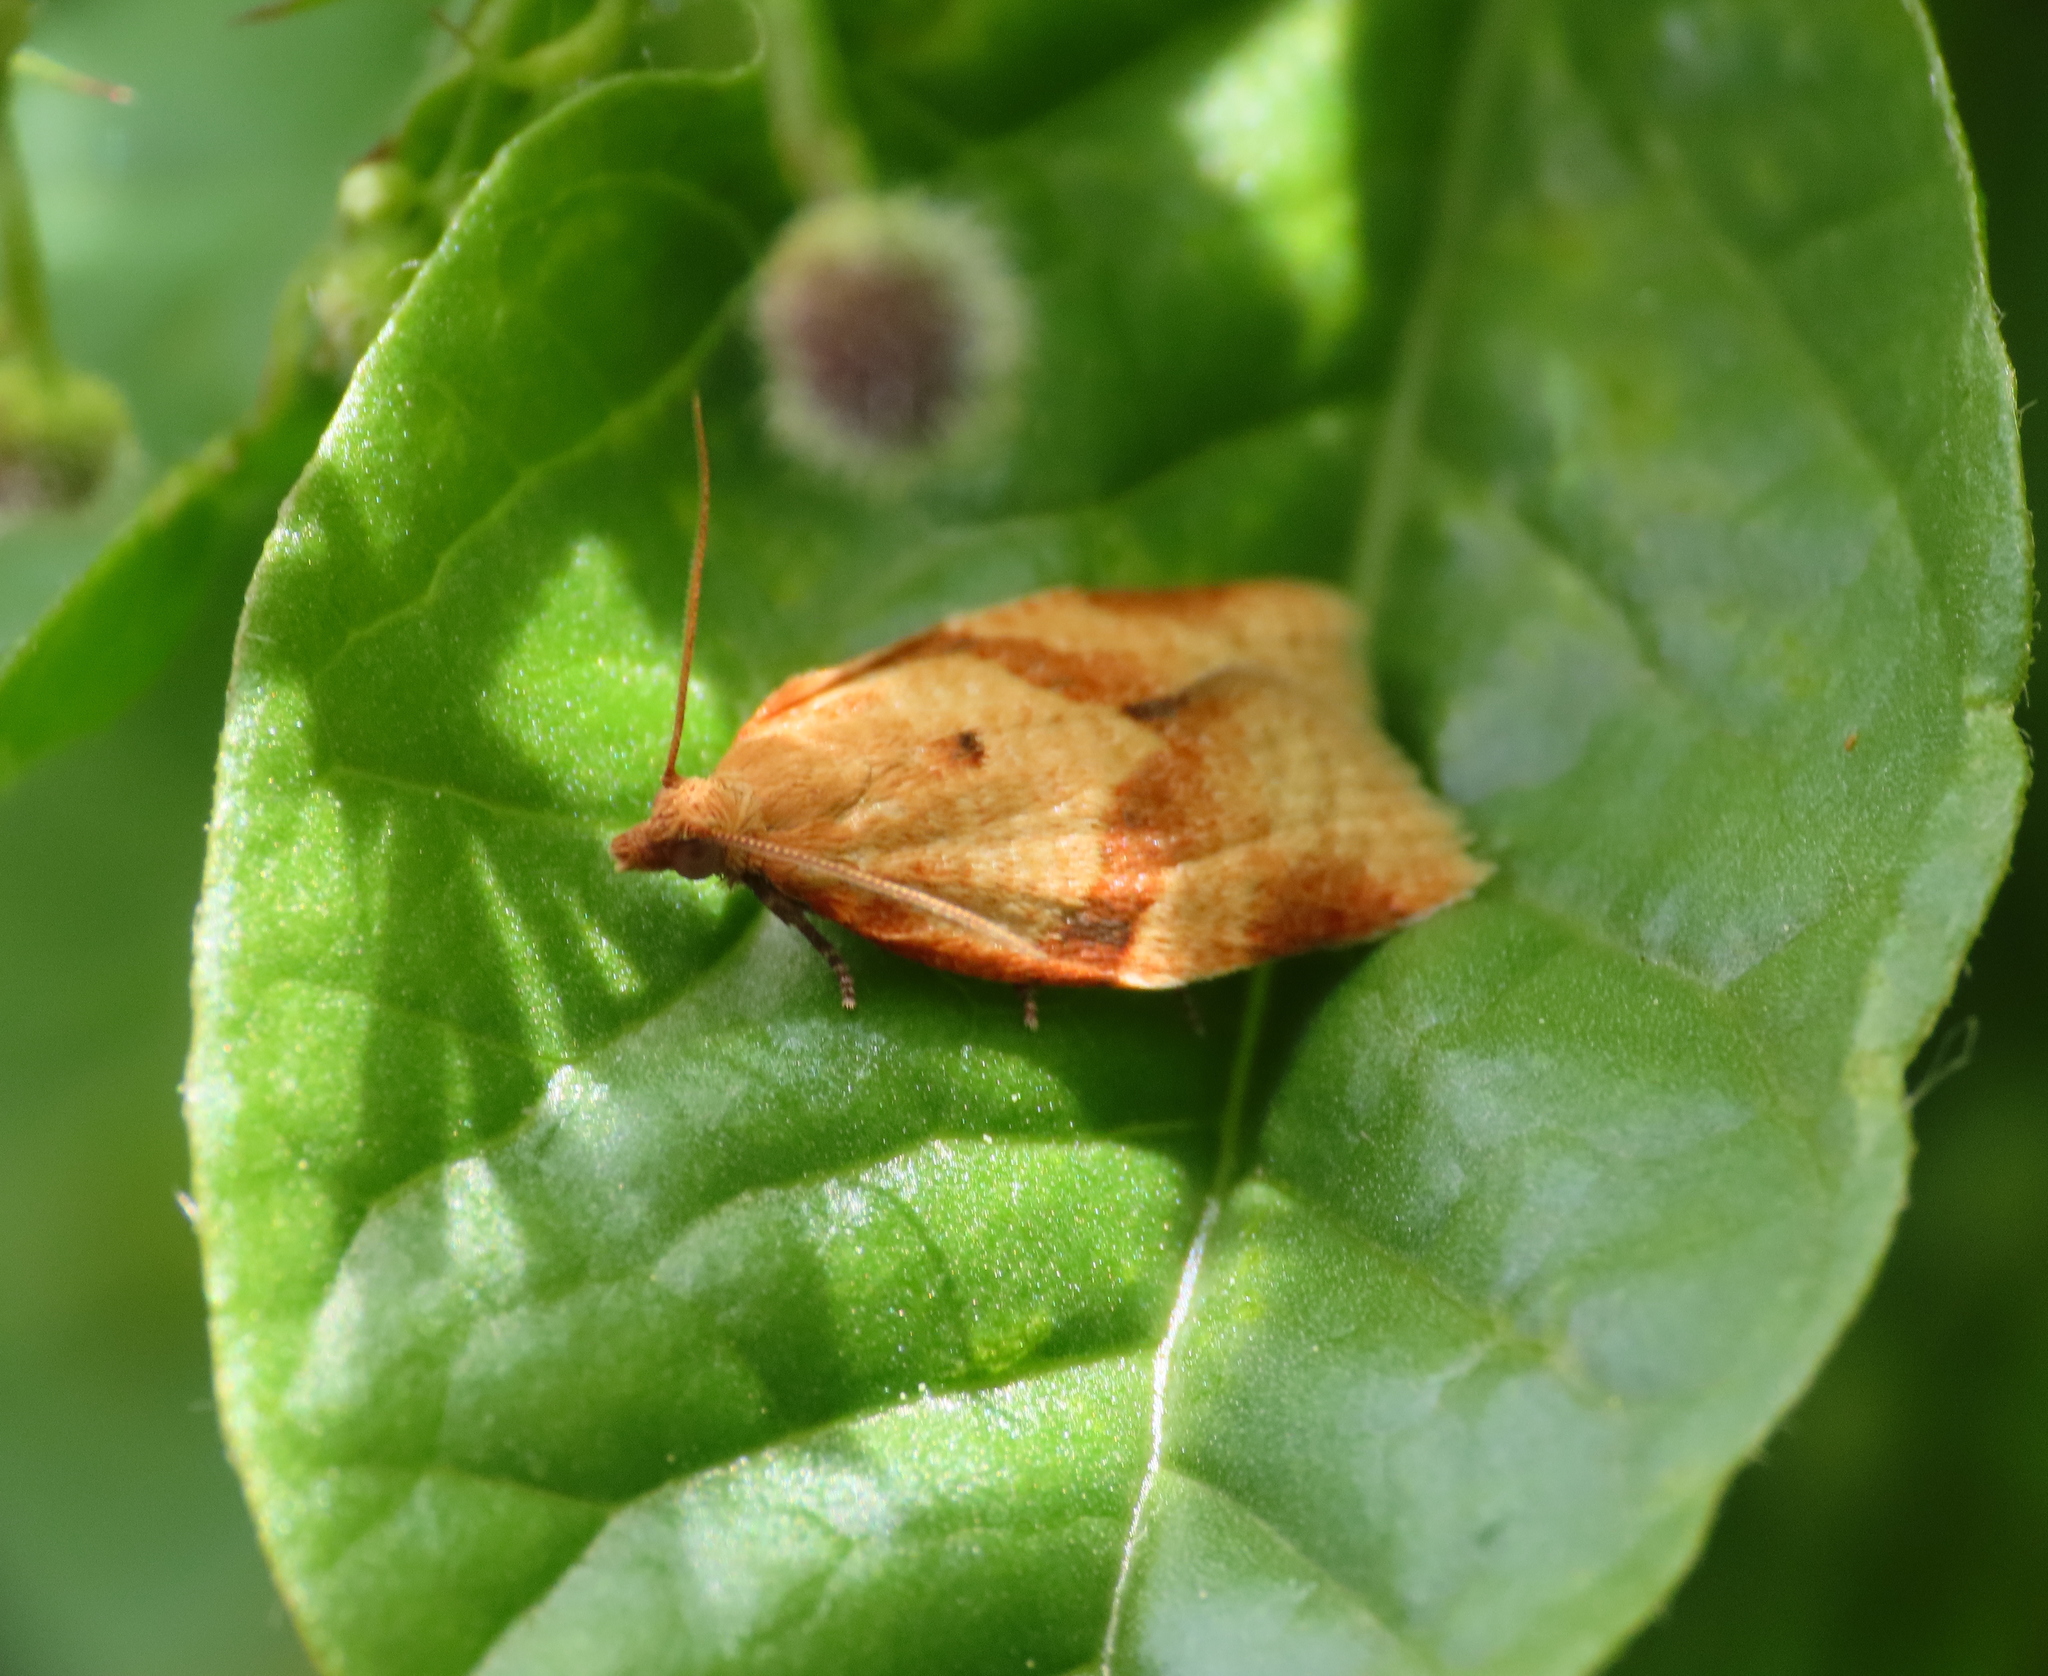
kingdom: Animalia
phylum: Arthropoda
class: Insecta
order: Lepidoptera
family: Tortricidae
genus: Clepsis
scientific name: Clepsis consimilana
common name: Privet tortrix
